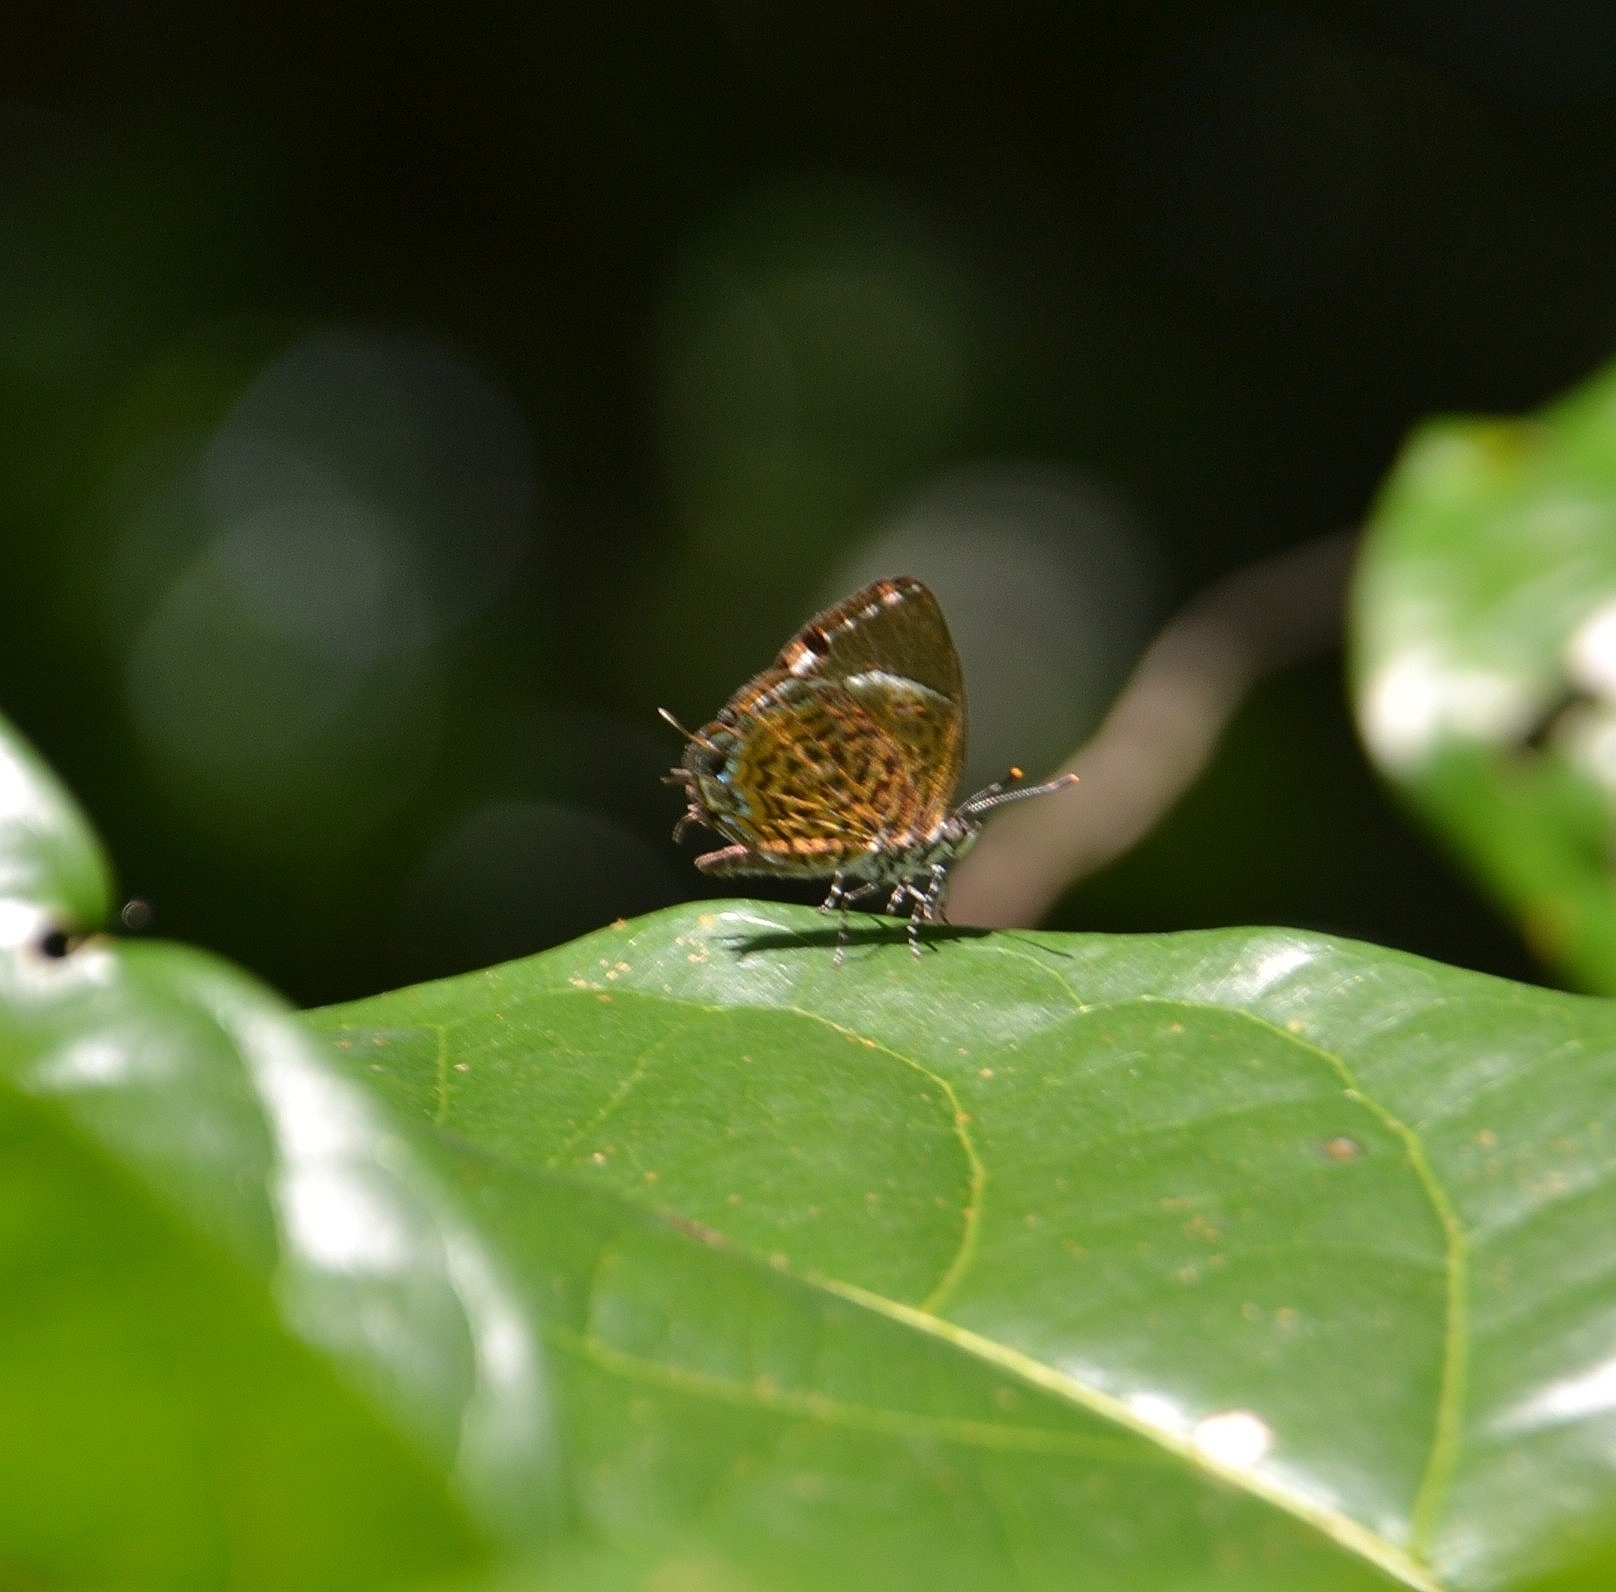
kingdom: Animalia
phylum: Arthropoda
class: Insecta
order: Lepidoptera
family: Lycaenidae
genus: Rathinda
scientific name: Rathinda amor
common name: Monkey puzzle
